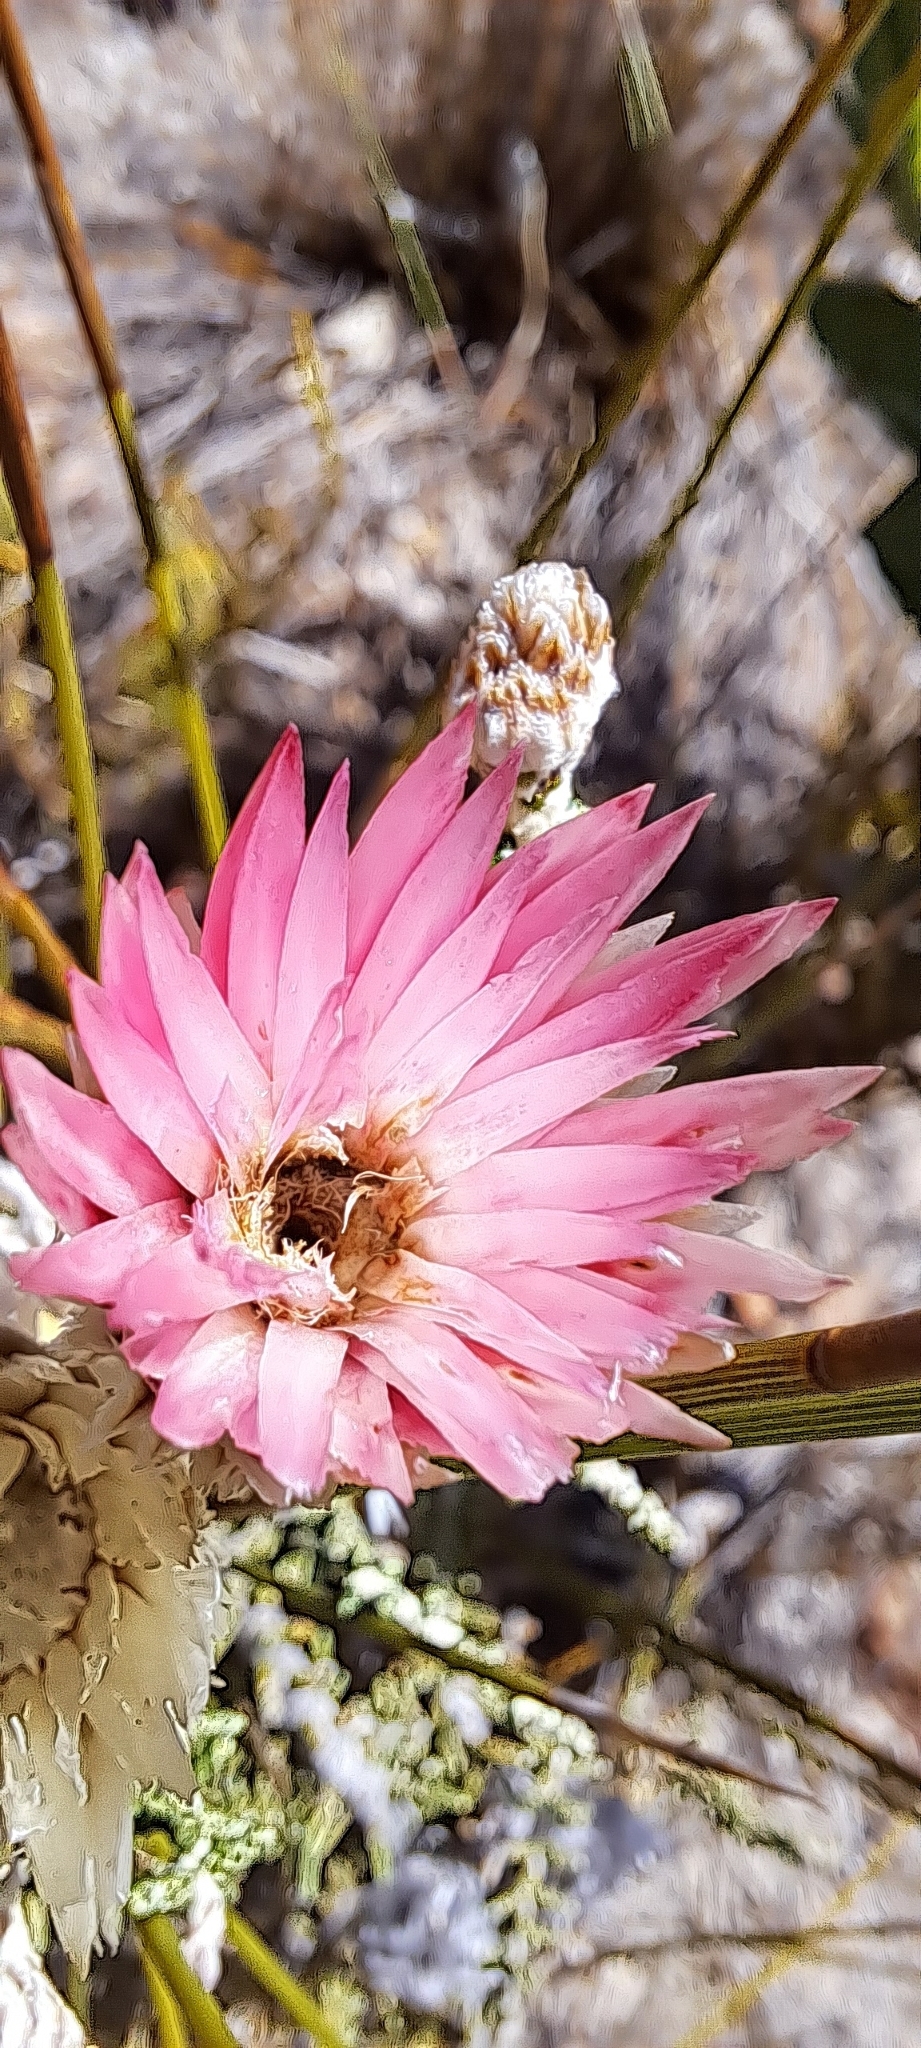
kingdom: Plantae
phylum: Tracheophyta
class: Magnoliopsida
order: Asterales
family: Asteraceae
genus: Phaenocoma
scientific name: Phaenocoma prolifera
